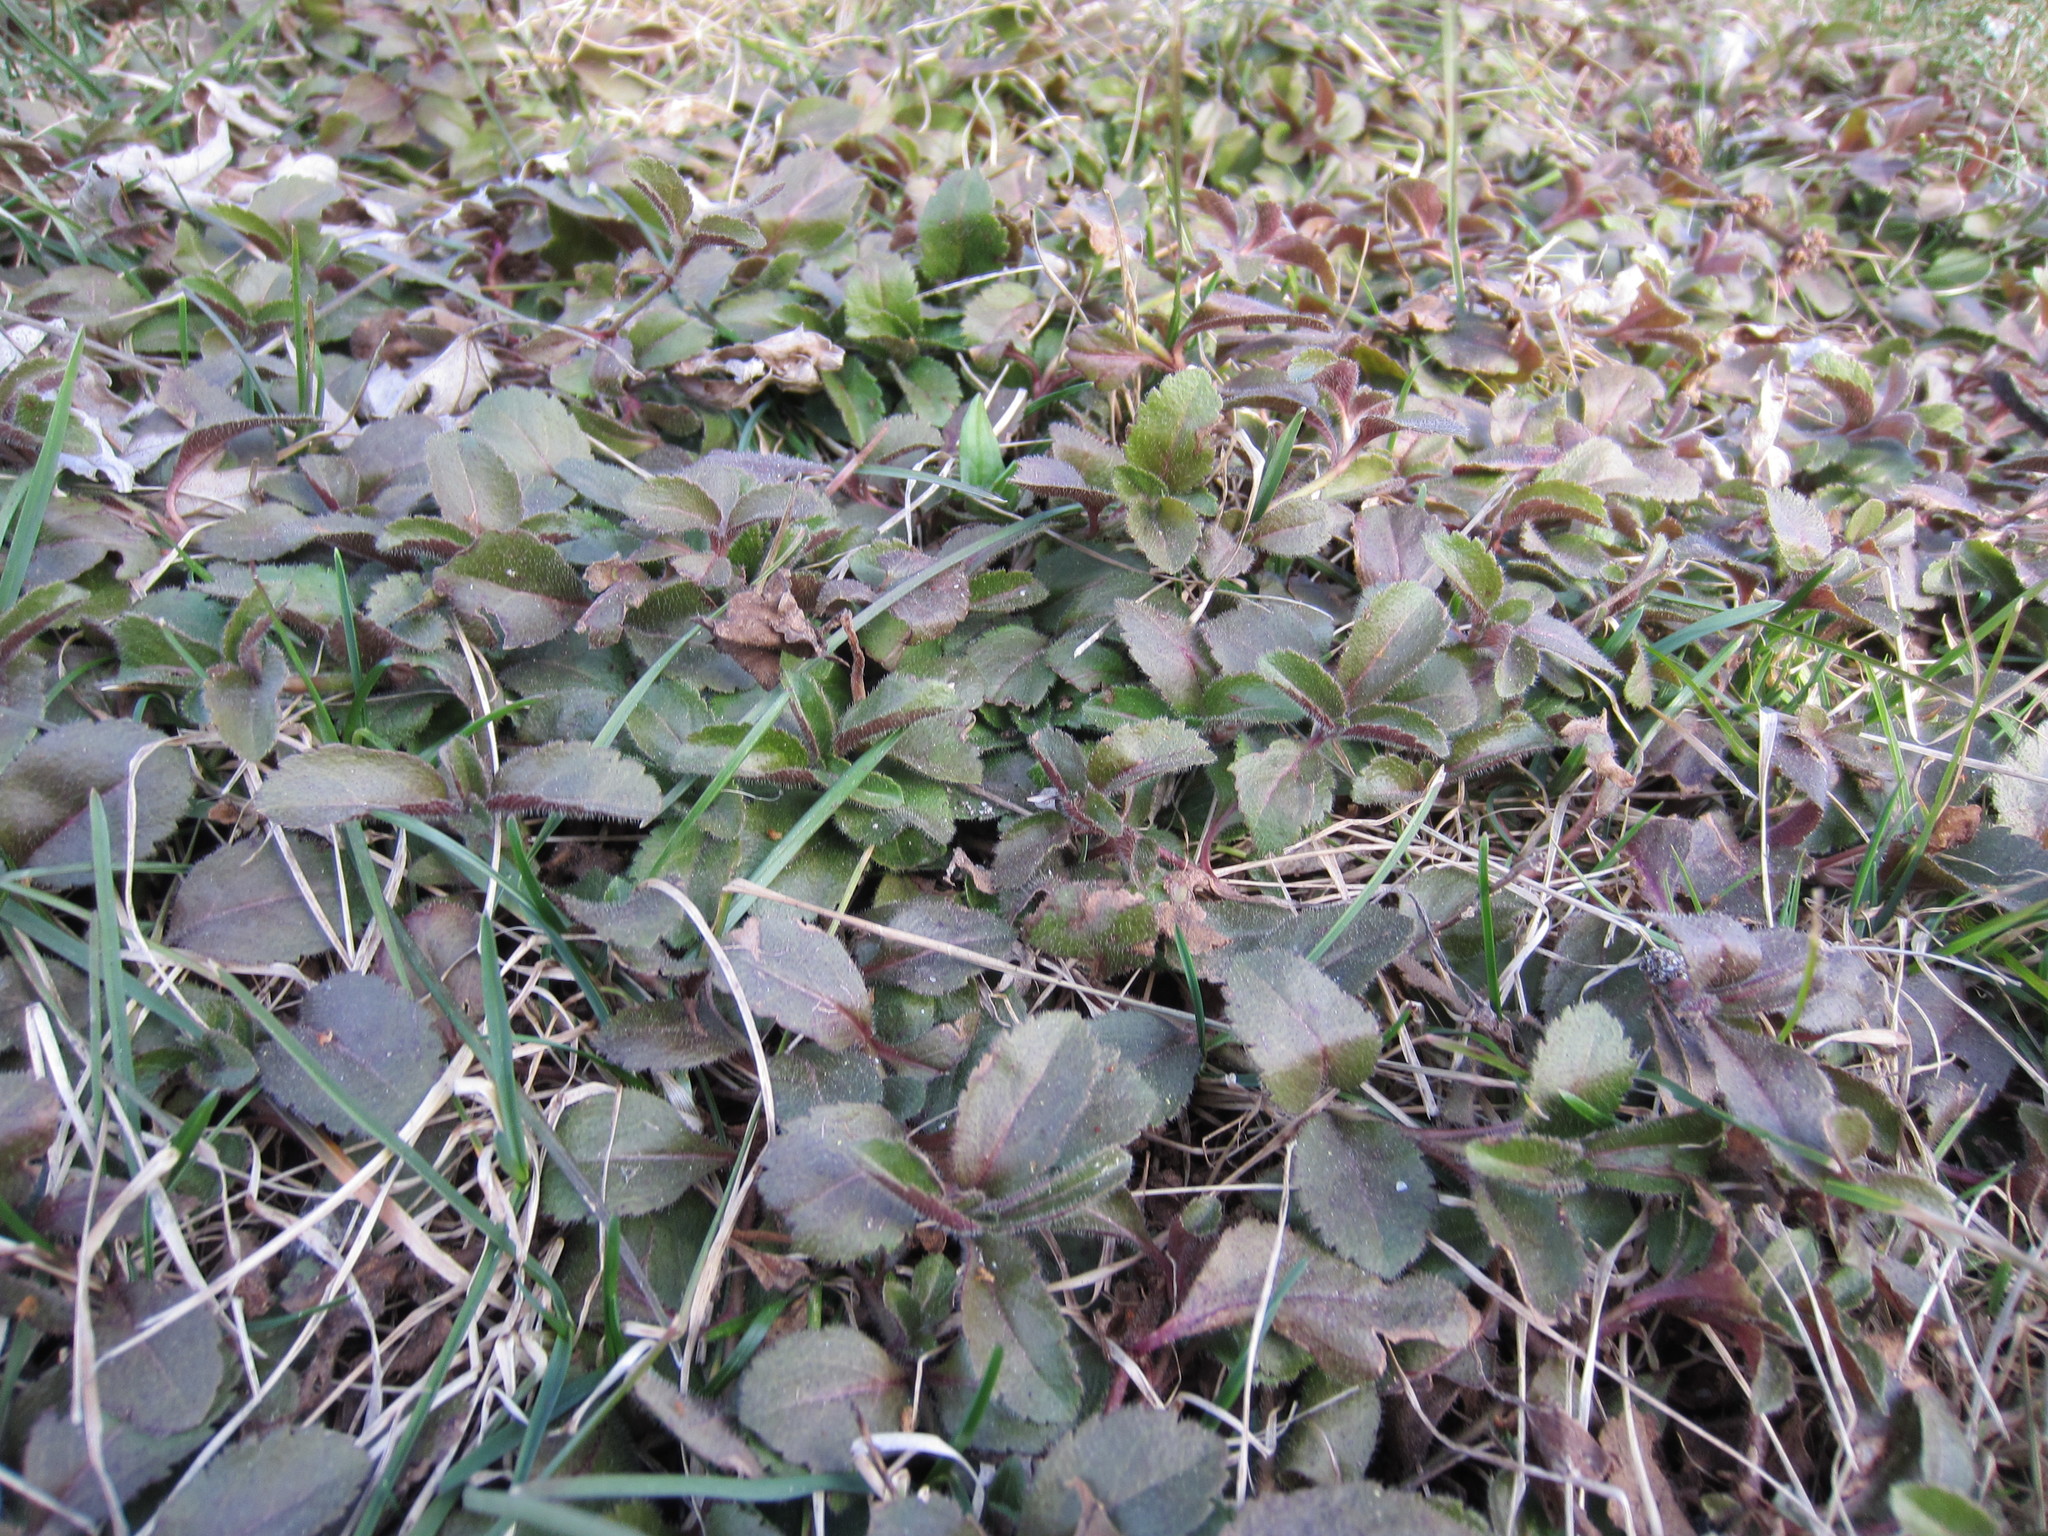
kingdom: Plantae
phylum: Tracheophyta
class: Magnoliopsida
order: Lamiales
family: Plantaginaceae
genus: Veronica
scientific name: Veronica officinalis
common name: Common speedwell
